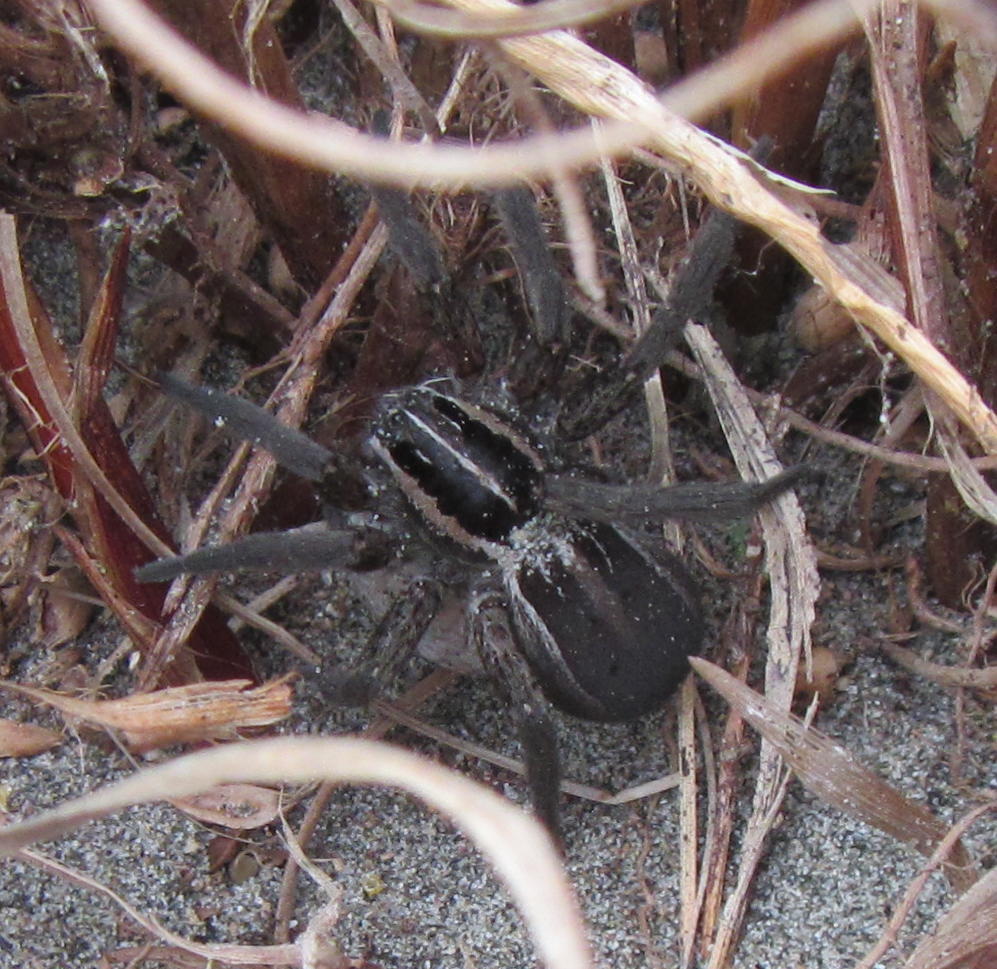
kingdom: Animalia
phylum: Arthropoda
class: Arachnida
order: Araneae
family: Pisauridae
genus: Dolomedes
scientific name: Dolomedes minor
